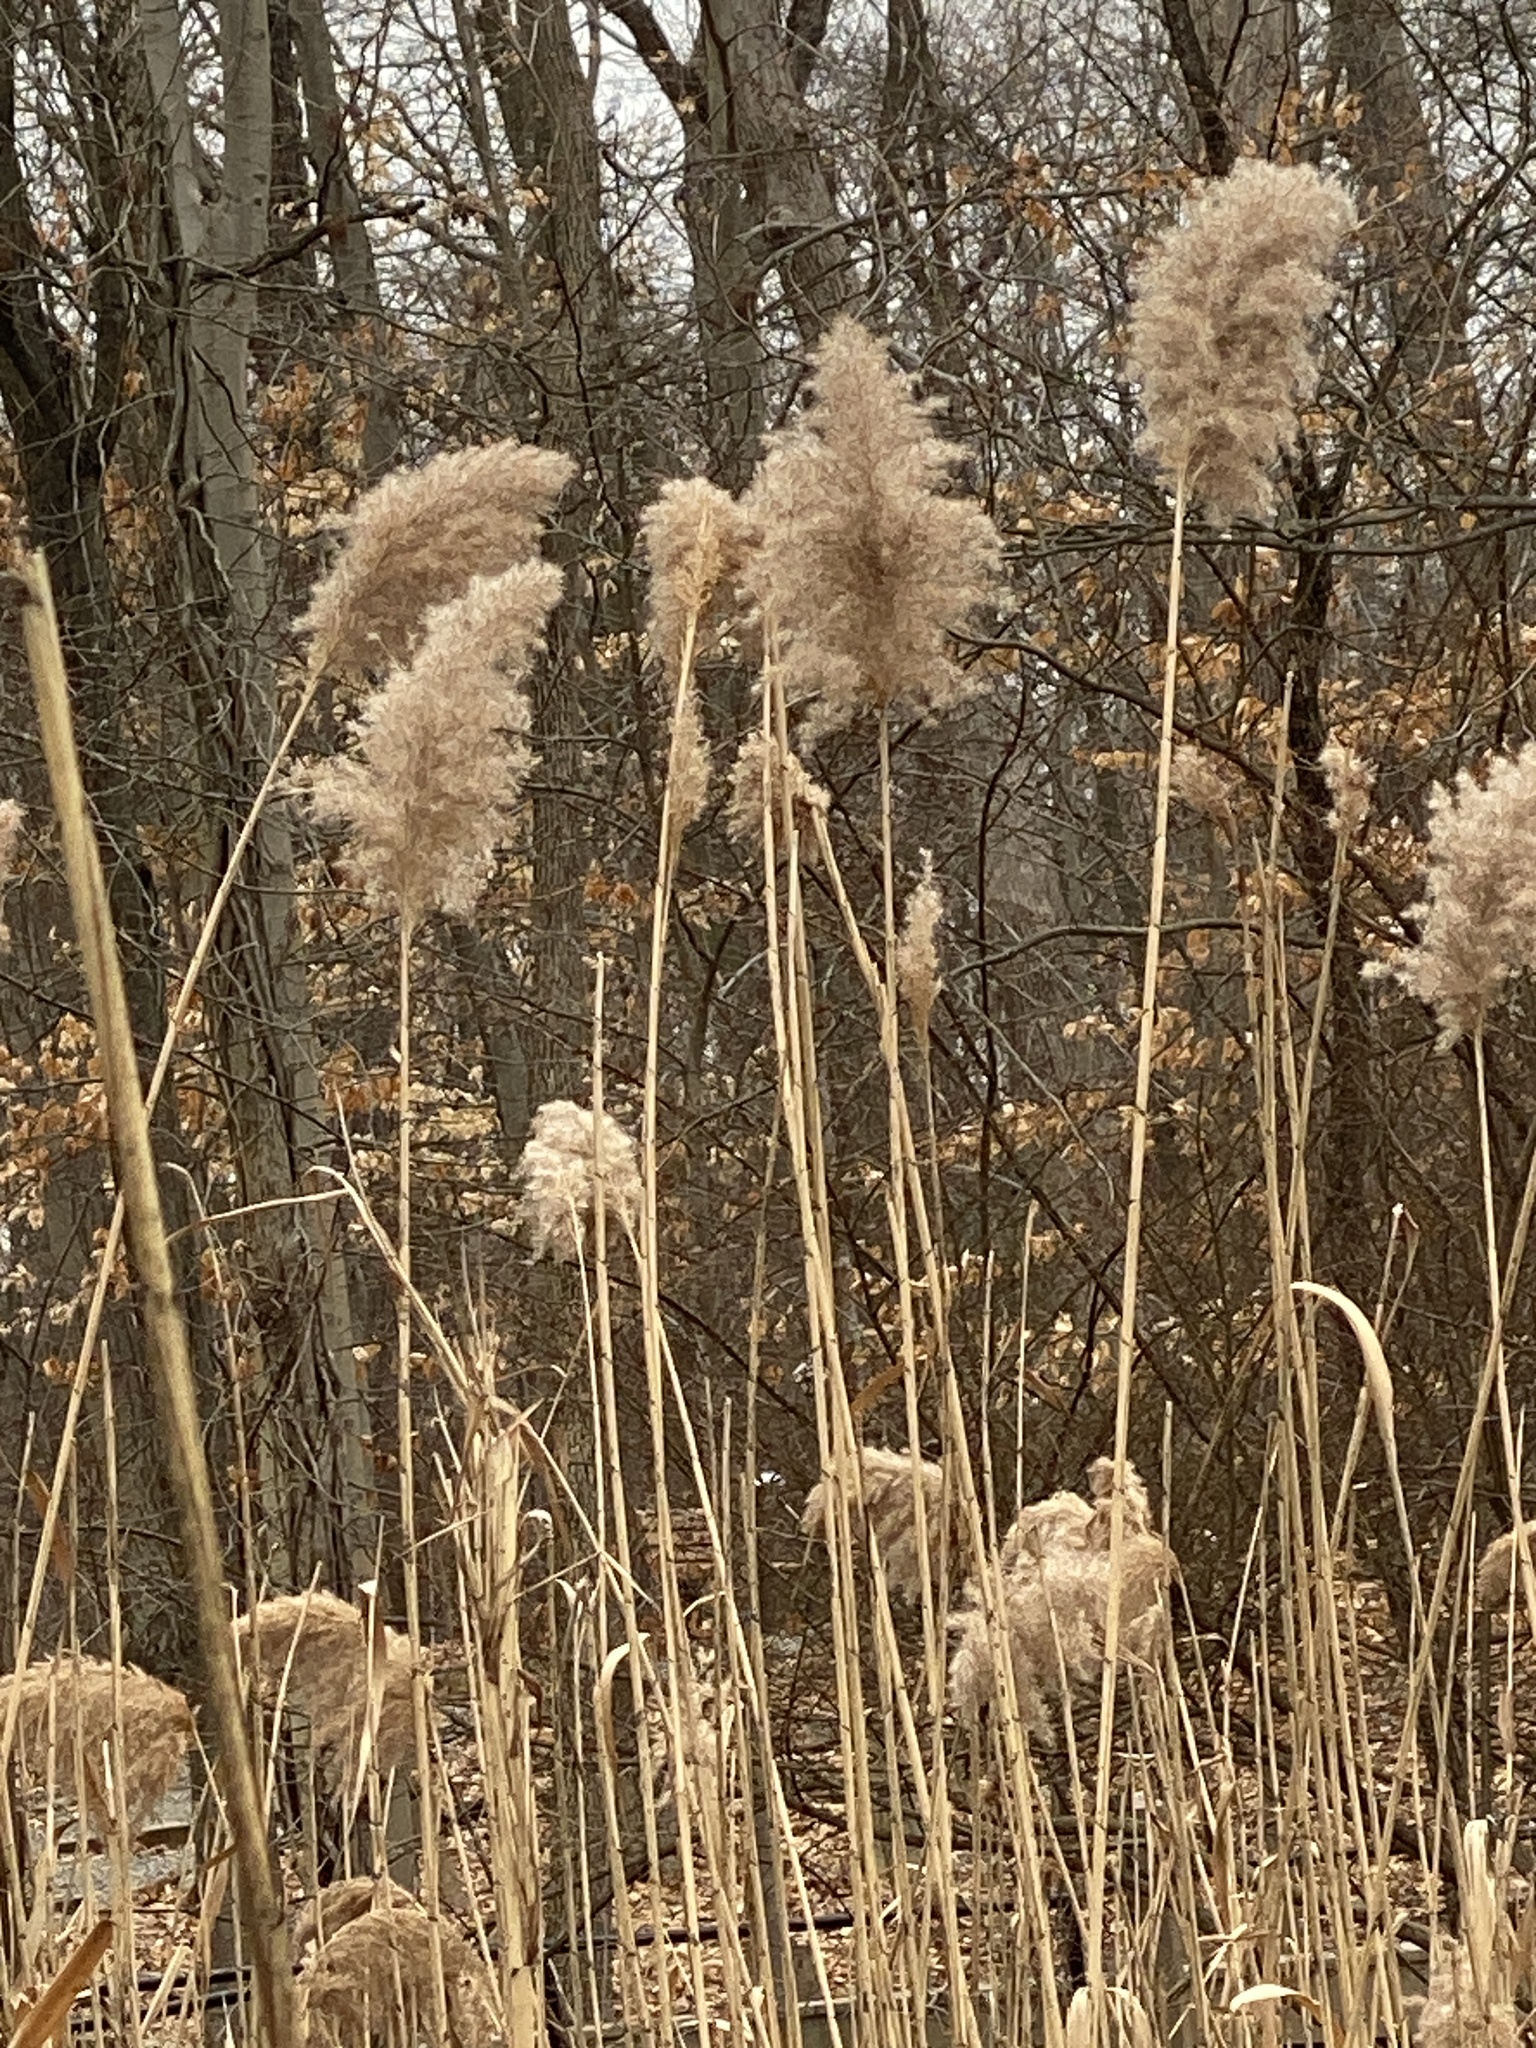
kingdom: Plantae
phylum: Tracheophyta
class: Liliopsida
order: Poales
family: Poaceae
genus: Phragmites
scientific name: Phragmites australis
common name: Common reed
